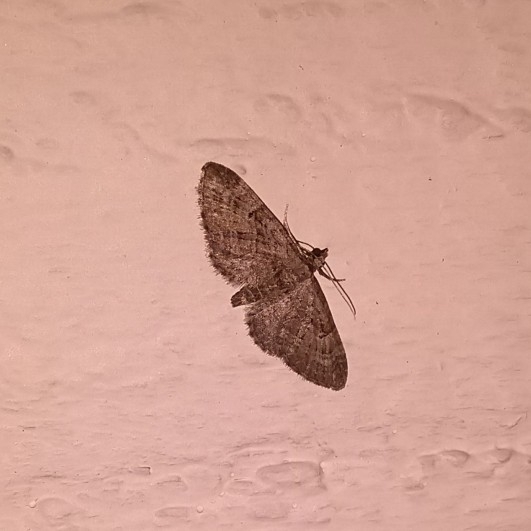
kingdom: Animalia
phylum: Arthropoda
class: Insecta
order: Lepidoptera
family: Geometridae
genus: Eupithecia
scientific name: Eupithecia pusillata
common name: Juniper pug
